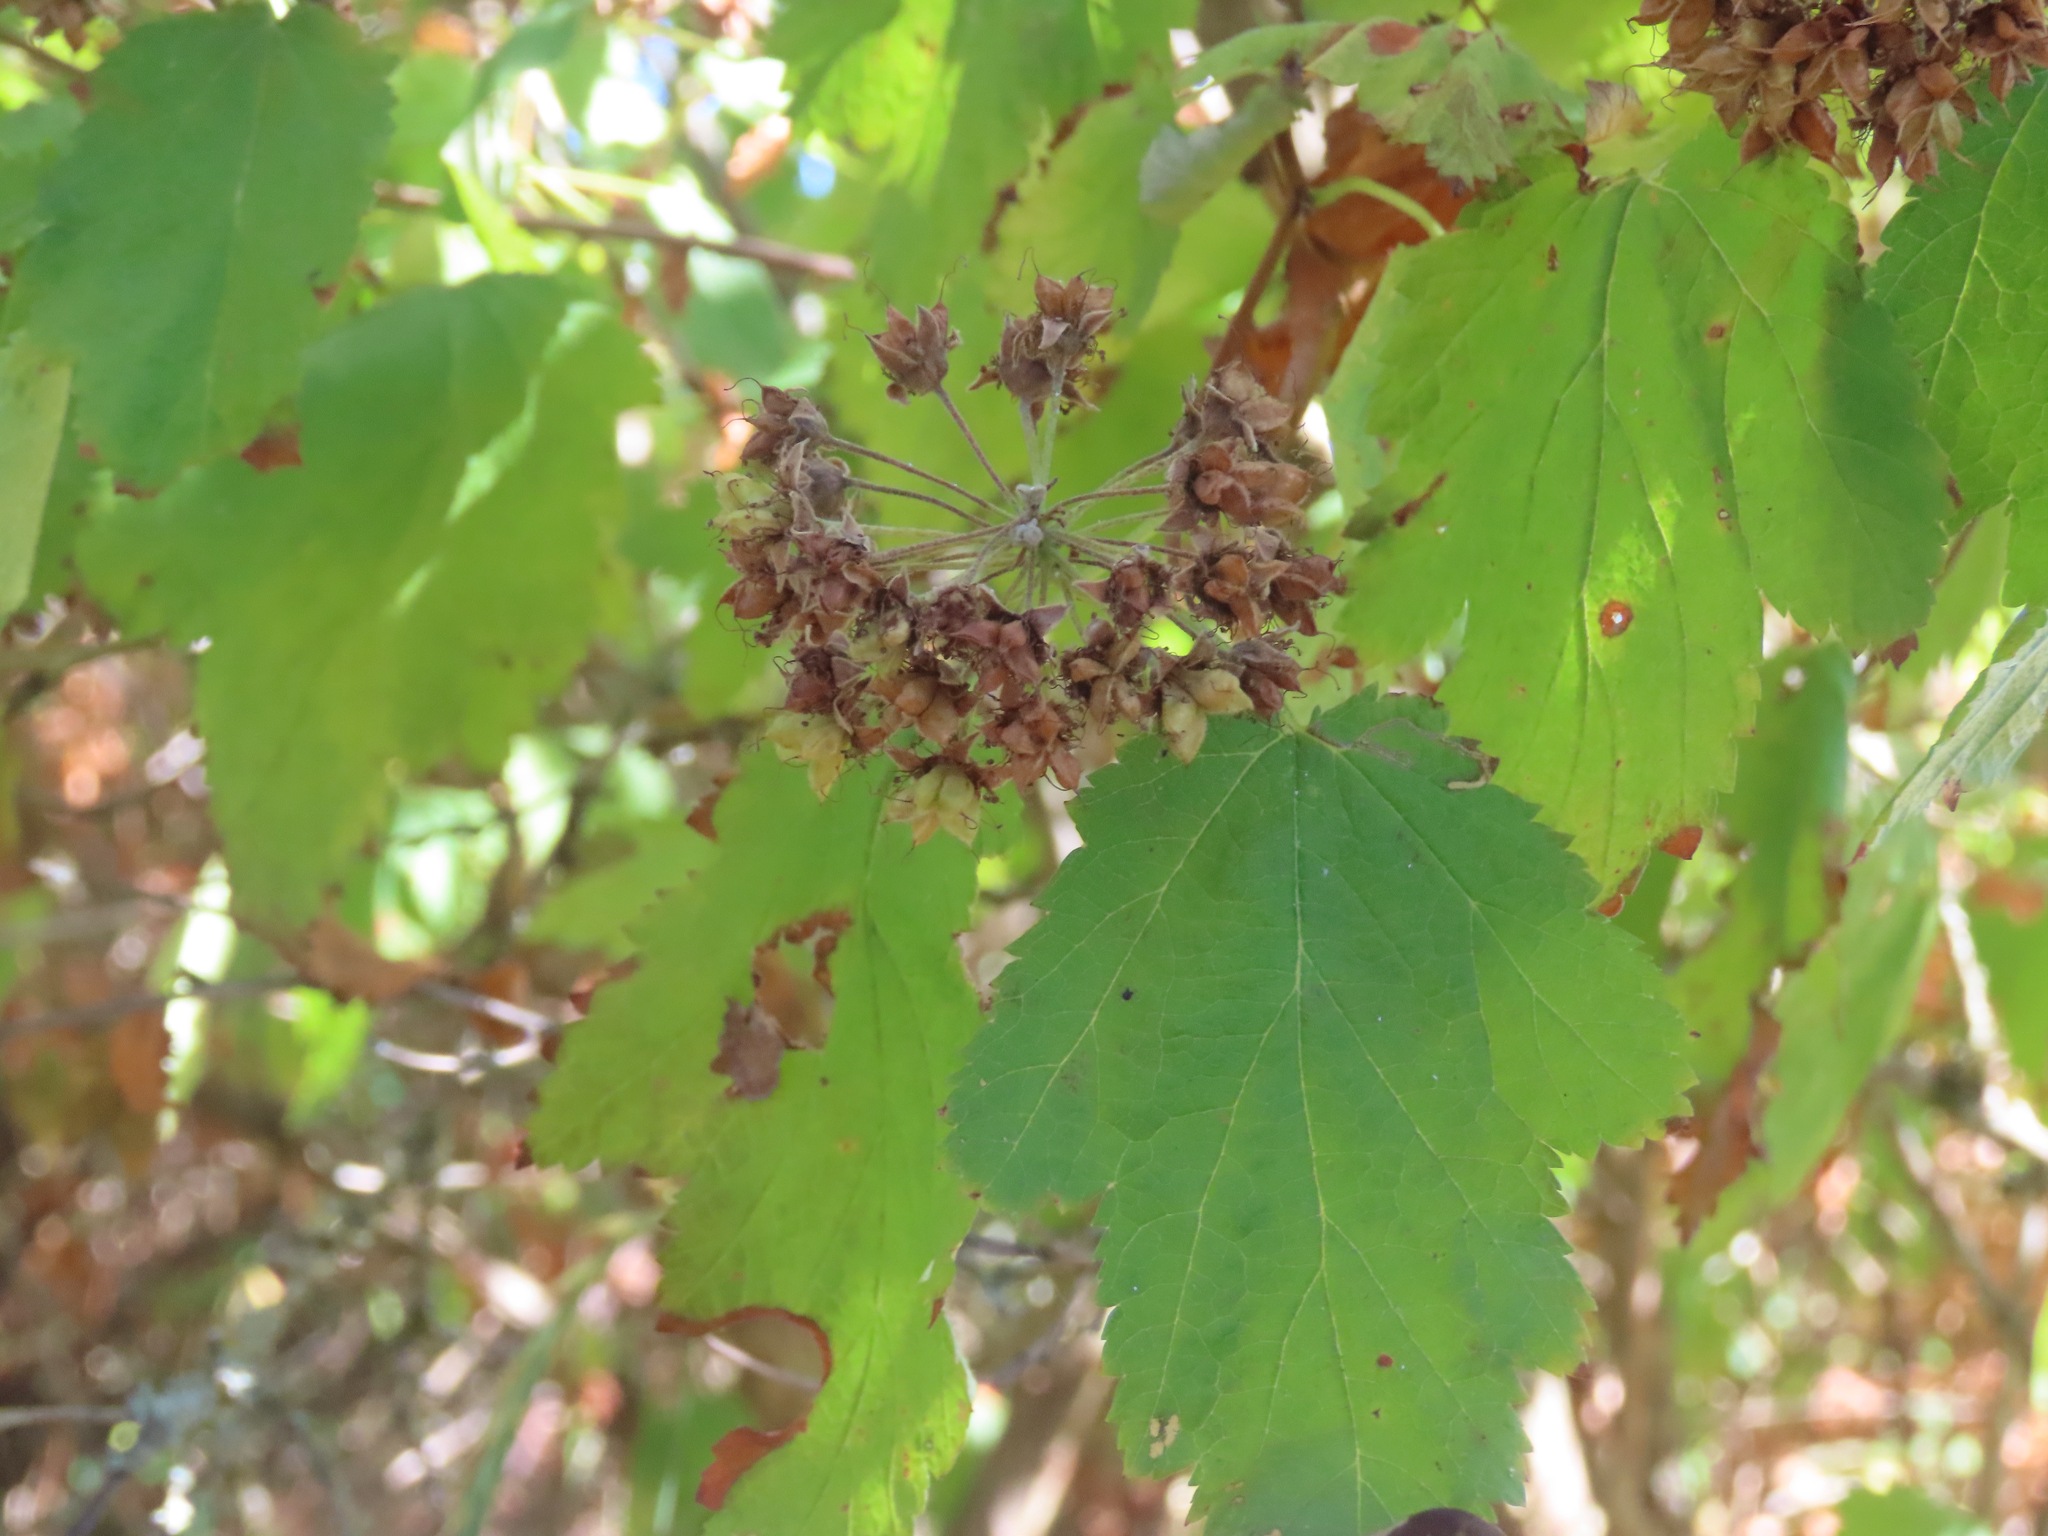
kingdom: Plantae
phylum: Tracheophyta
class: Magnoliopsida
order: Rosales
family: Rosaceae
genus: Physocarpus
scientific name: Physocarpus capitatus
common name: Pacific ninebark
